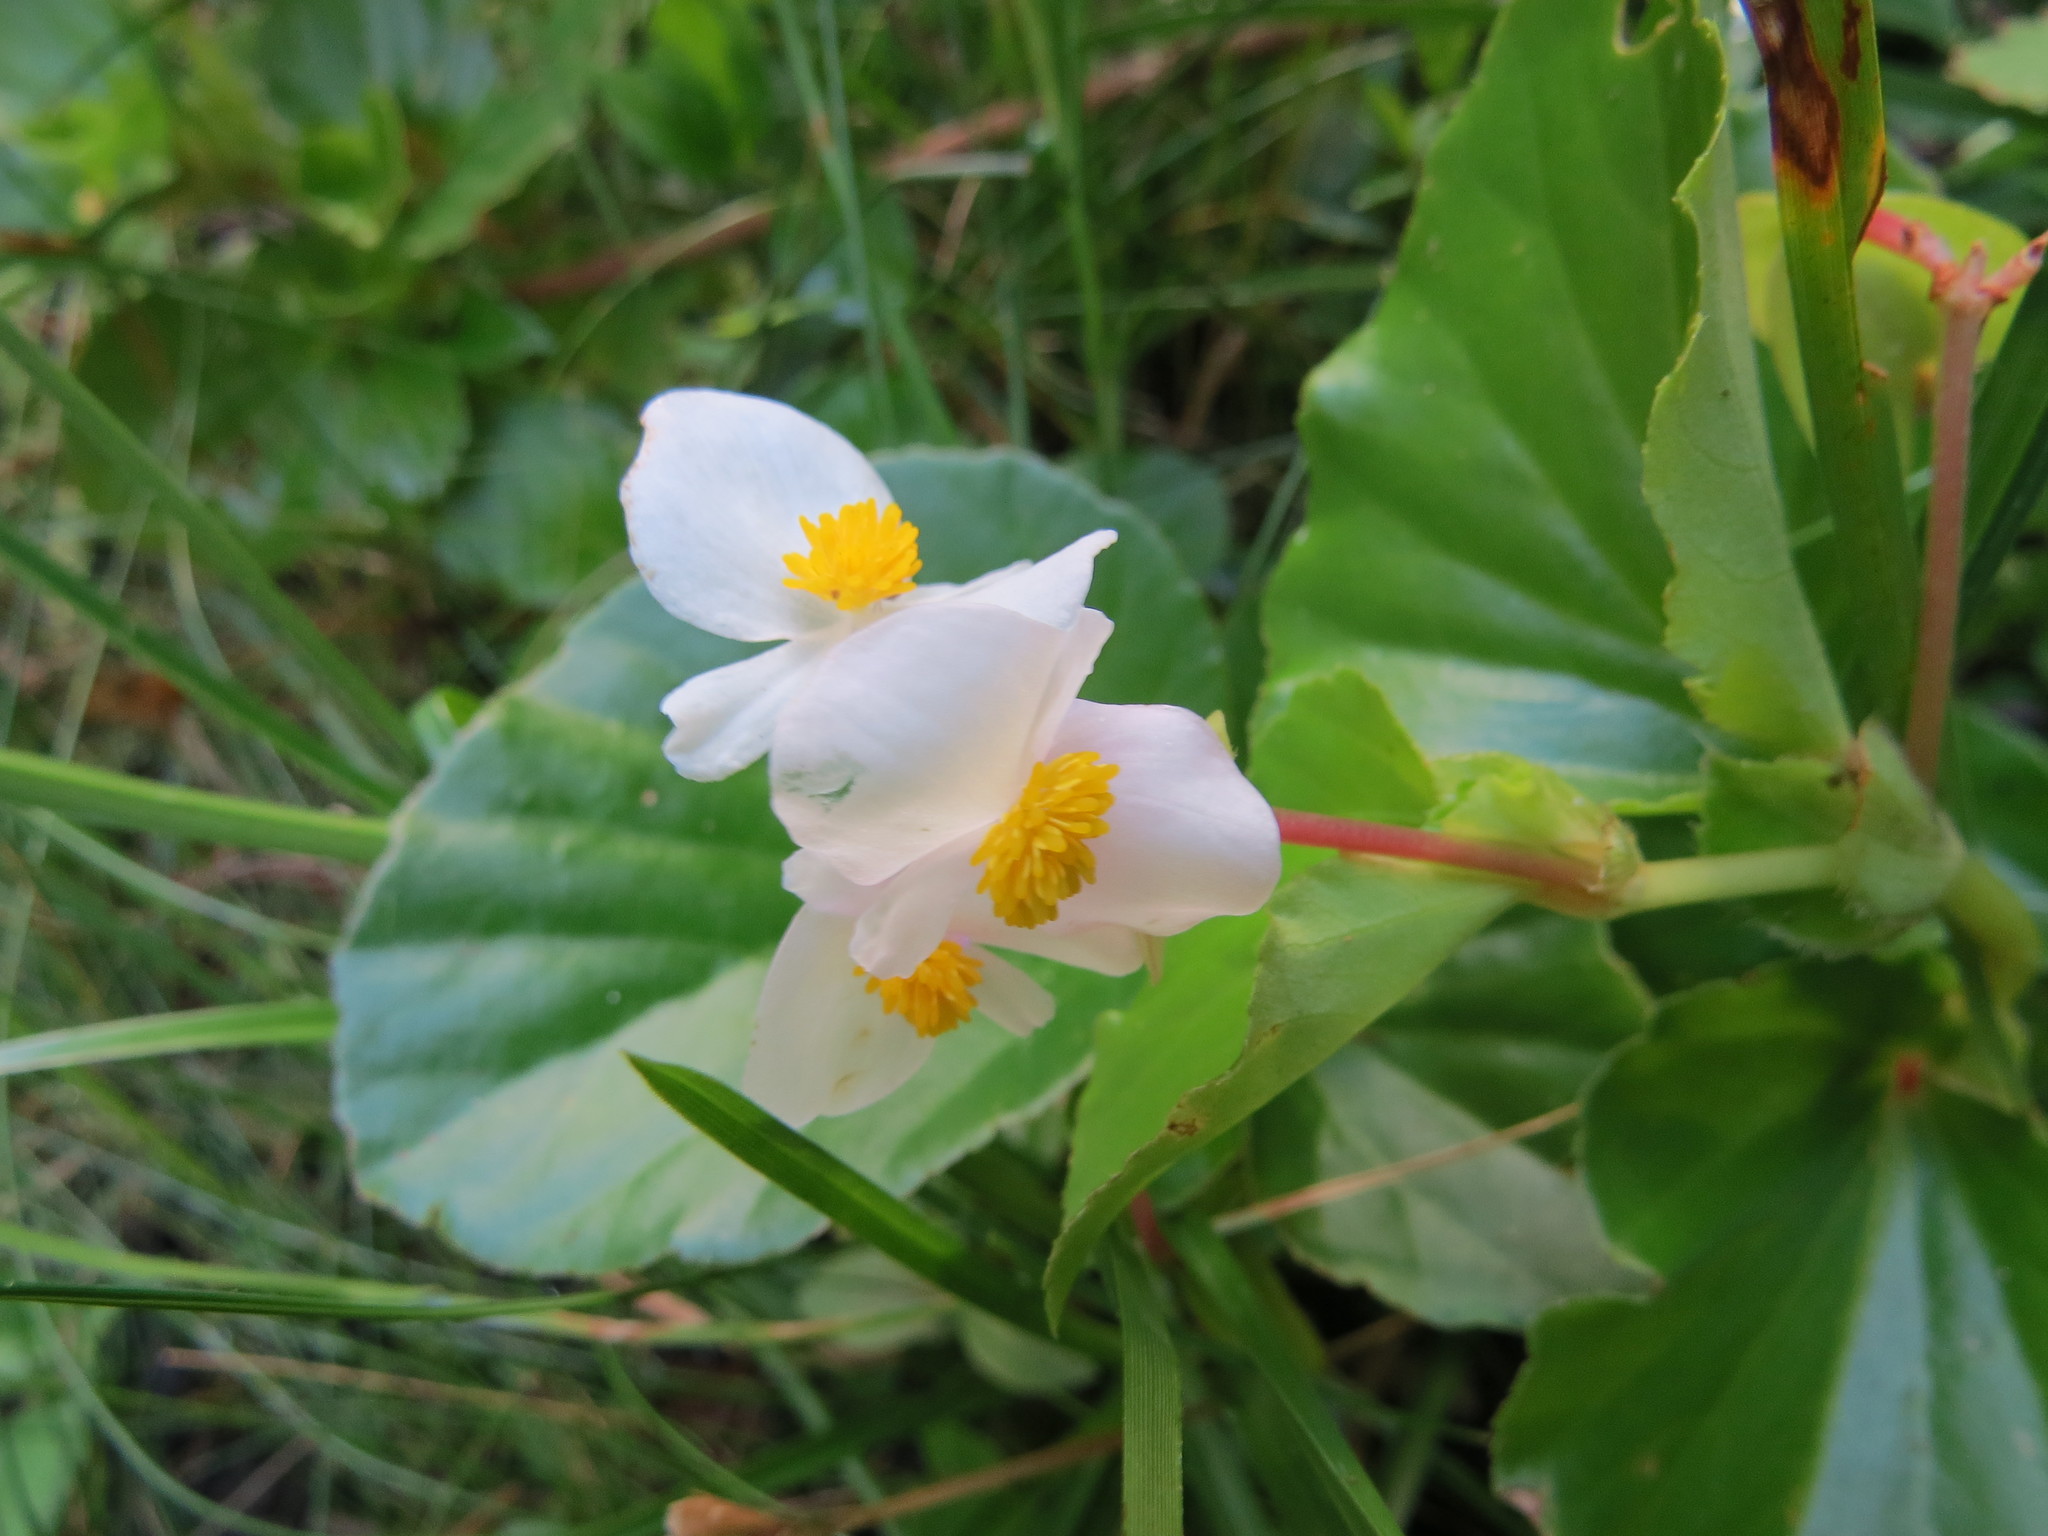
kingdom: Plantae
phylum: Tracheophyta
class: Magnoliopsida
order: Cucurbitales
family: Begoniaceae
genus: Begonia
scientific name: Begonia cucullata
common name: Clubbed begonia
